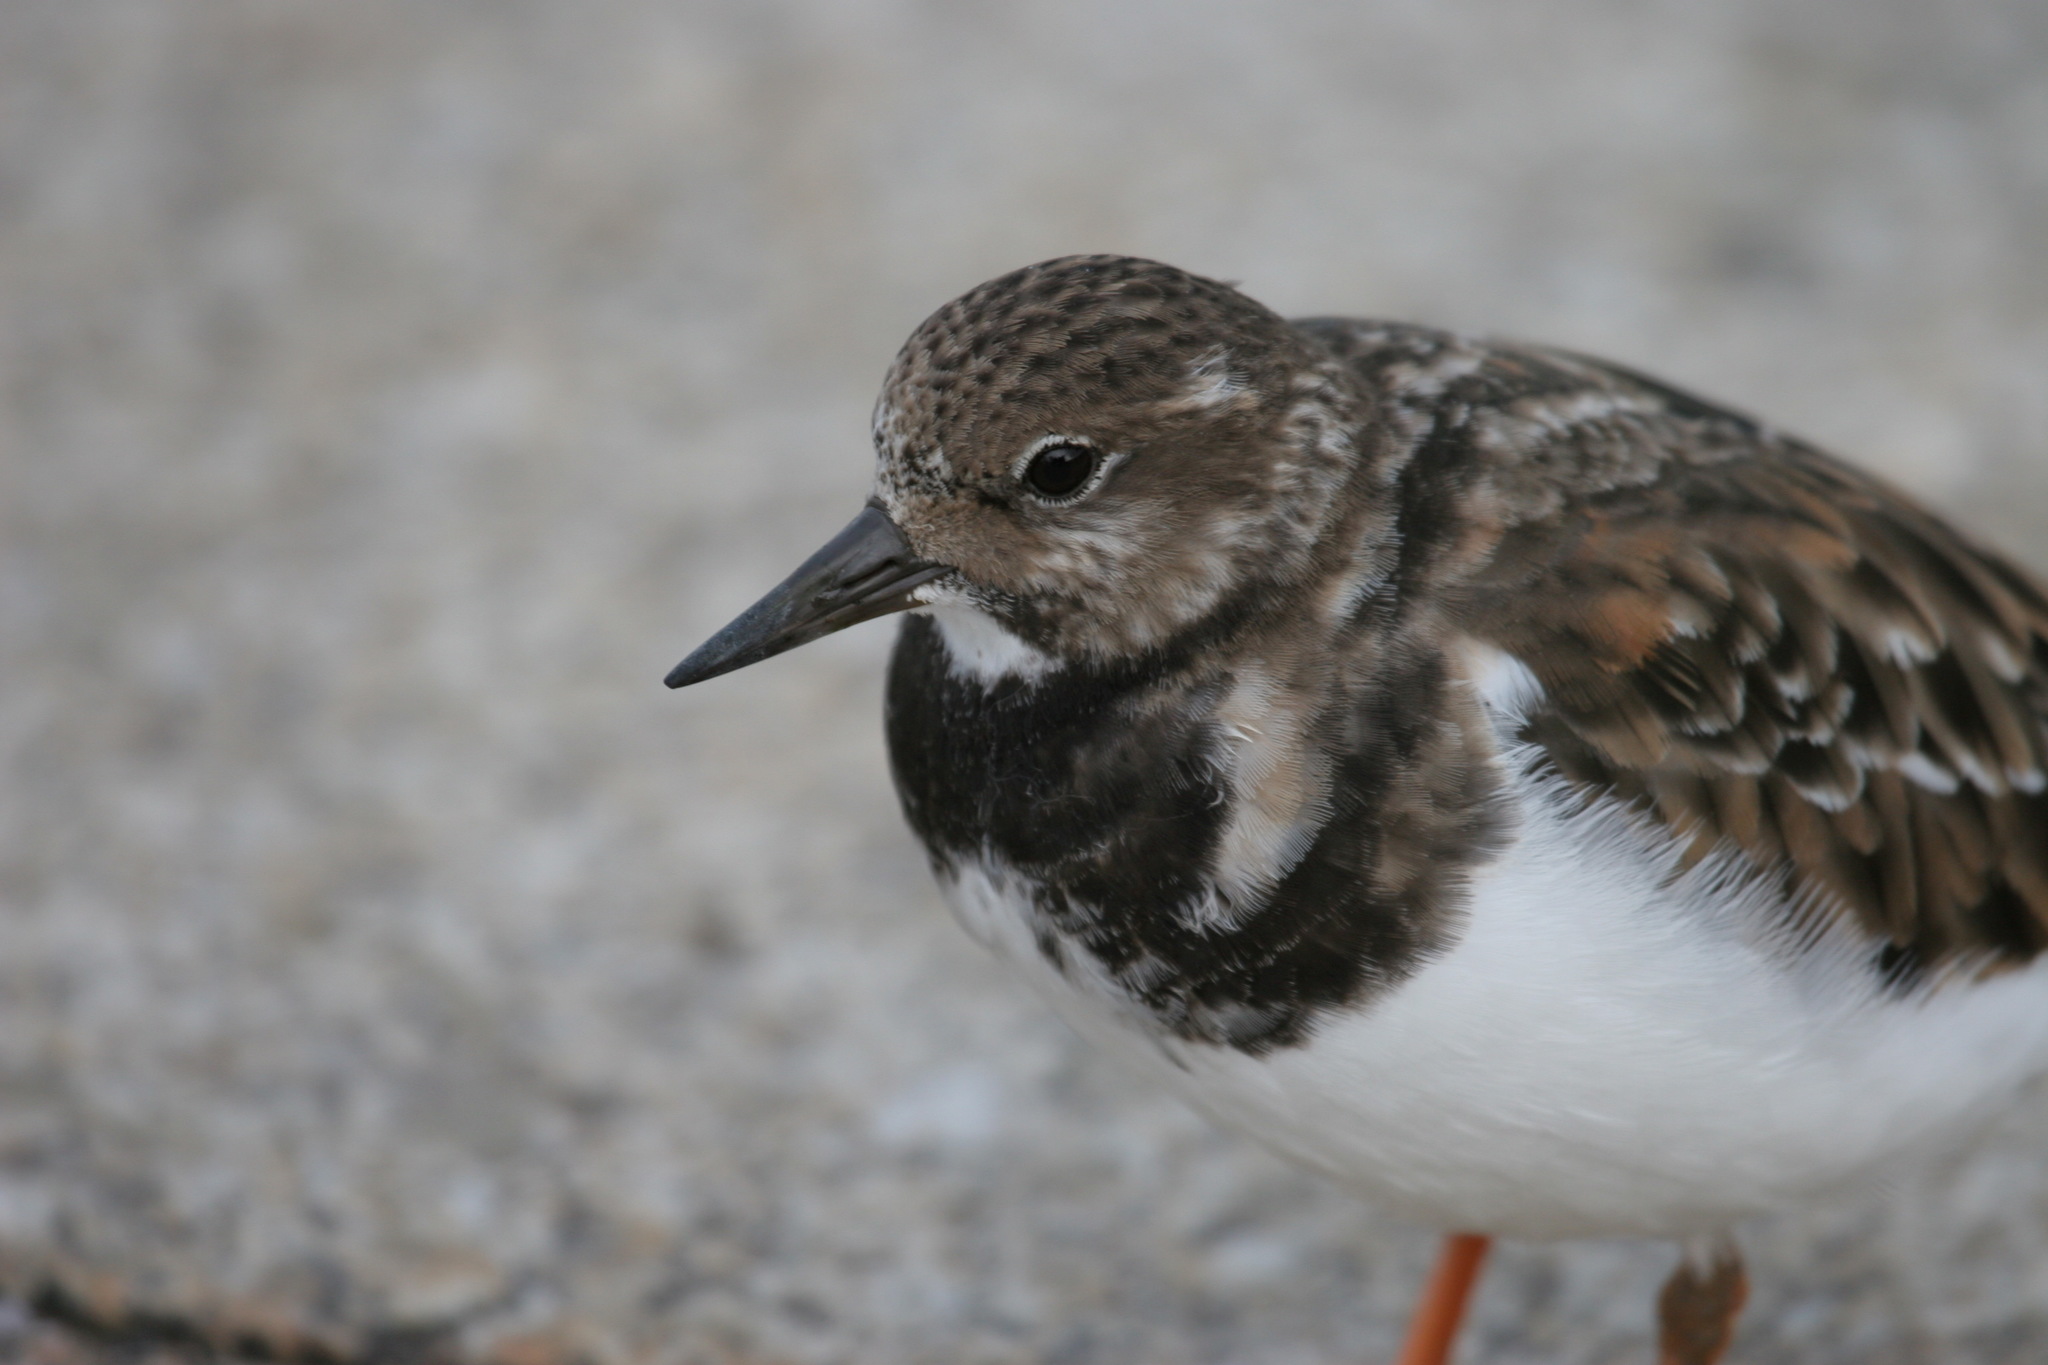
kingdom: Animalia
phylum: Chordata
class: Aves
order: Charadriiformes
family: Scolopacidae
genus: Arenaria
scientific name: Arenaria interpres
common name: Ruddy turnstone
